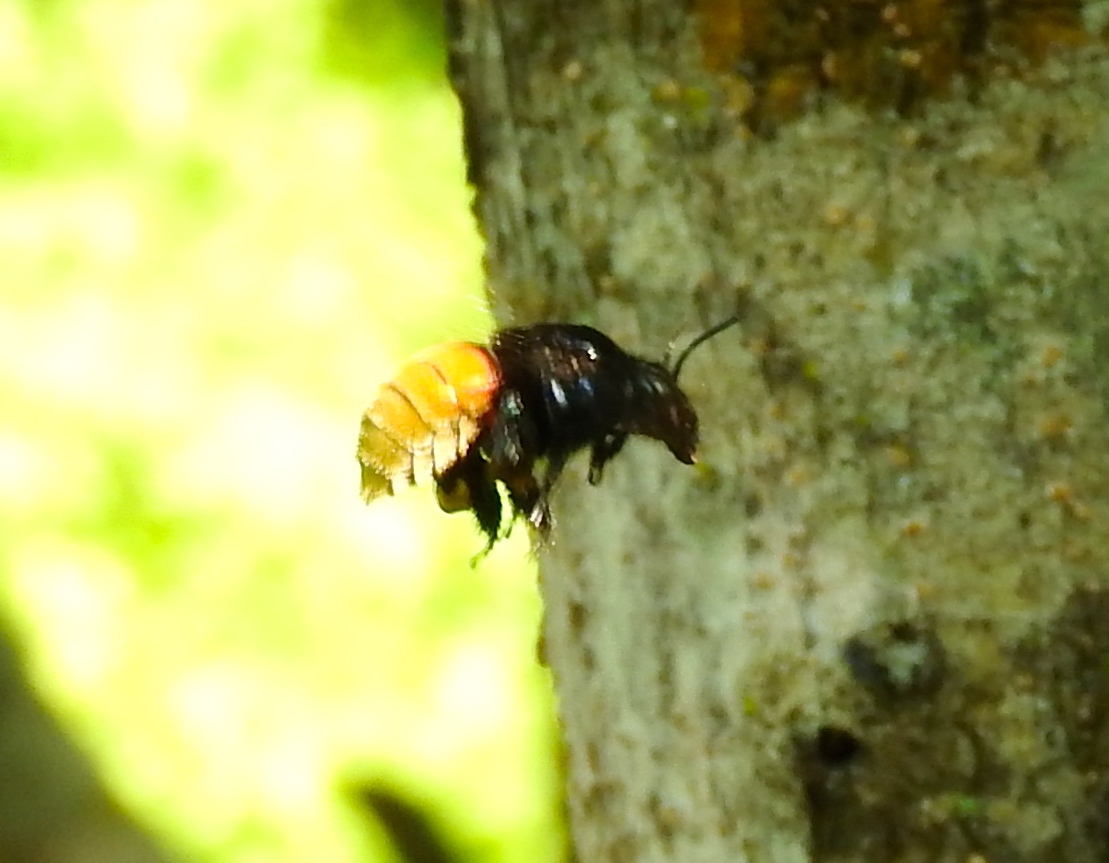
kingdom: Animalia
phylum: Arthropoda
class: Insecta
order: Hymenoptera
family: Apidae
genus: Eulaema
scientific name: Eulaema polychroma
